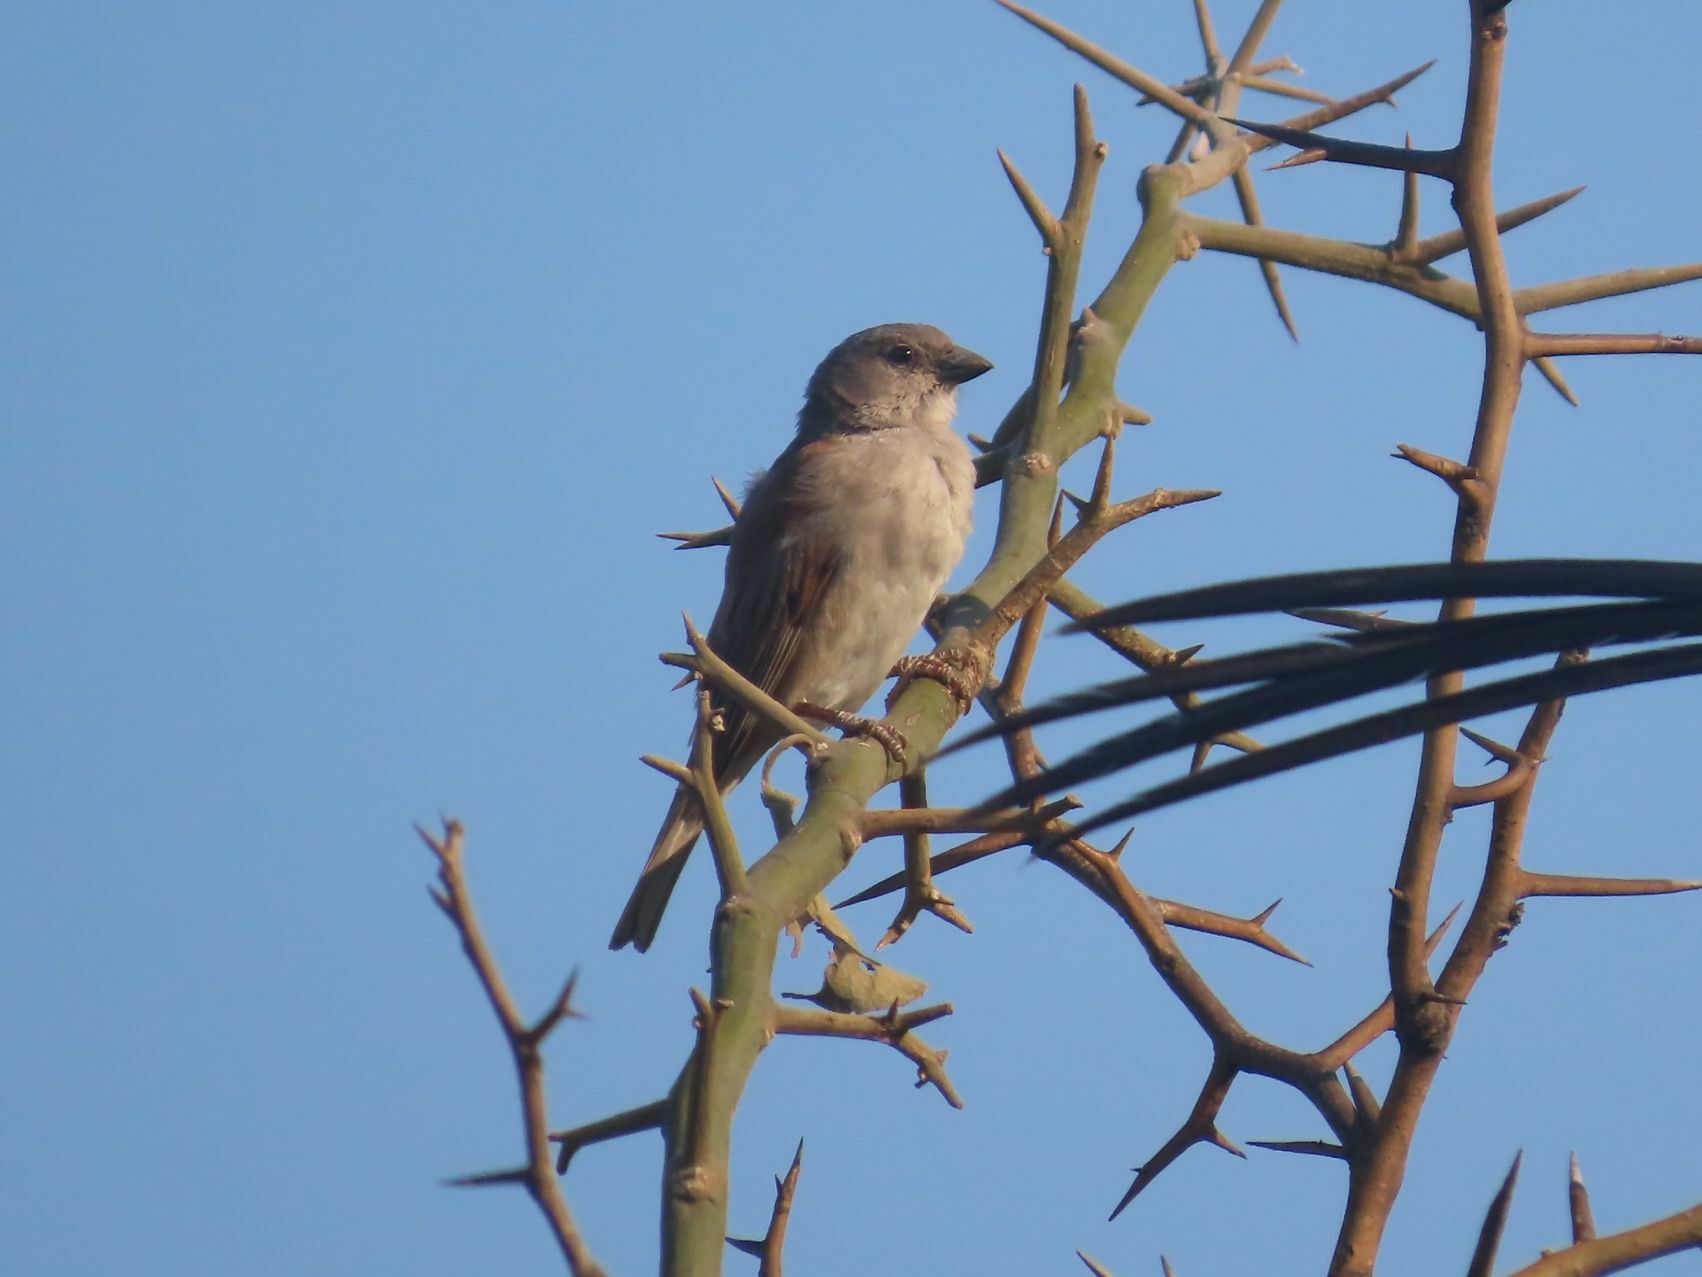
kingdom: Animalia
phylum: Chordata
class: Aves
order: Passeriformes
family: Passeridae
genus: Passer
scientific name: Passer diffusus
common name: Southern grey-headed sparrow
